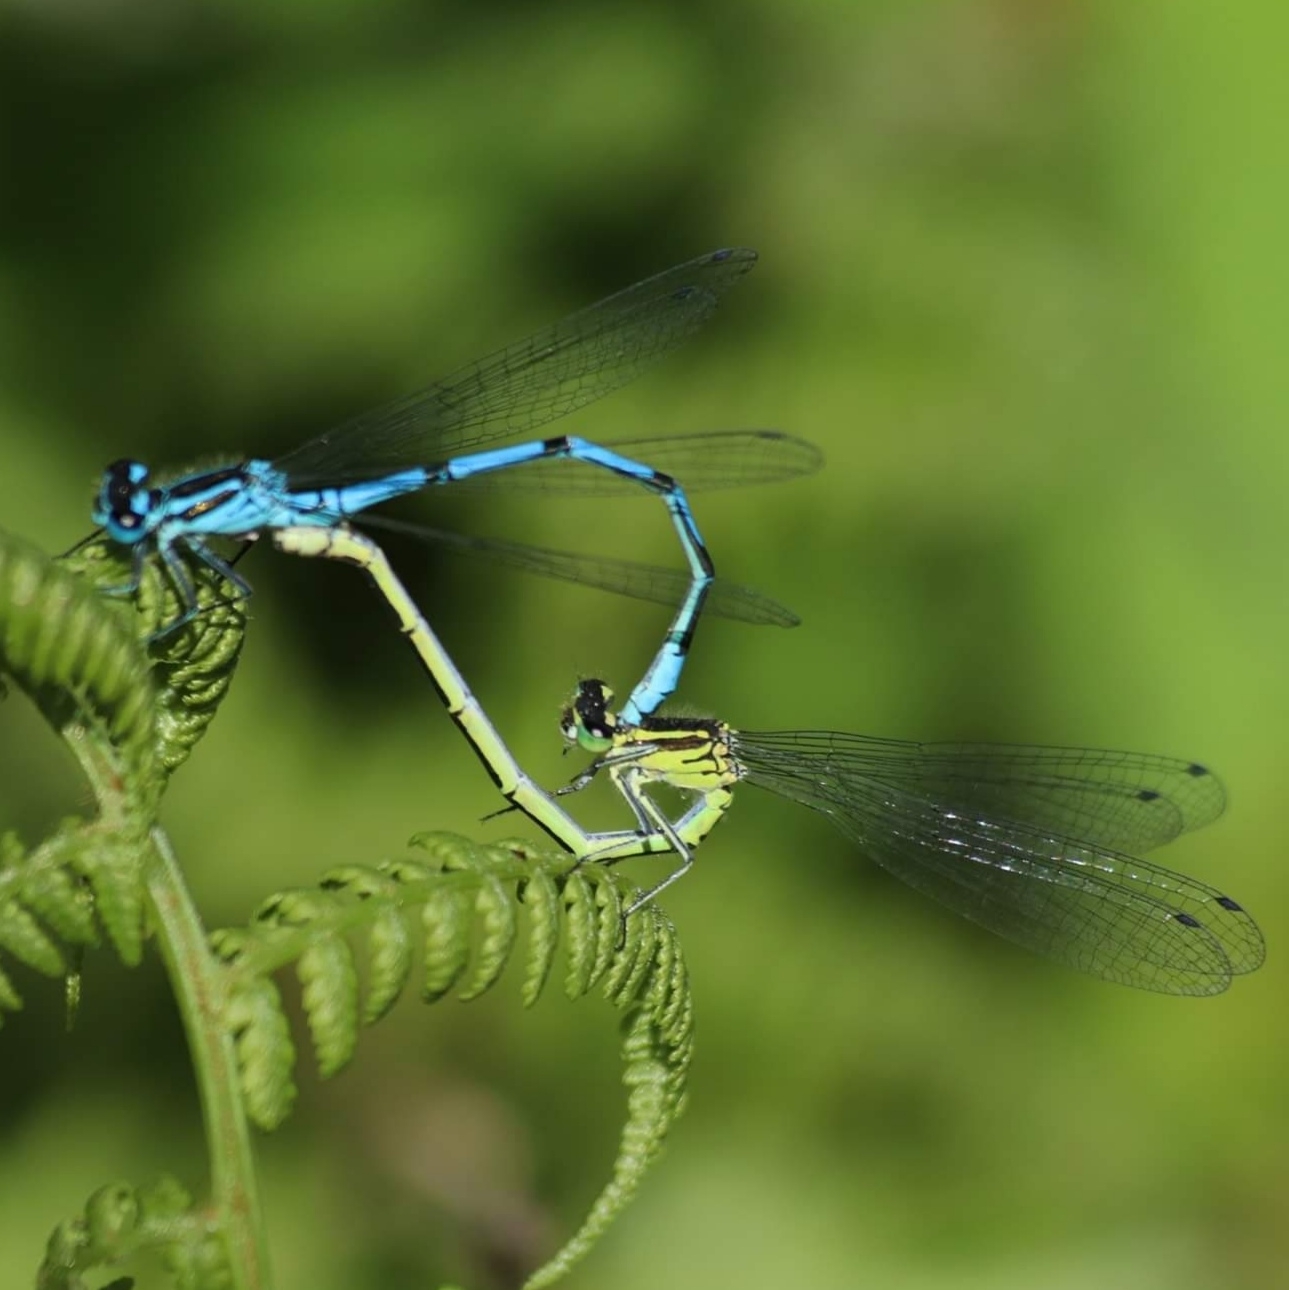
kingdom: Animalia
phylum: Arthropoda
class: Insecta
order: Odonata
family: Coenagrionidae
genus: Coenagrion
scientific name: Coenagrion puella
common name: Azure damselfly
